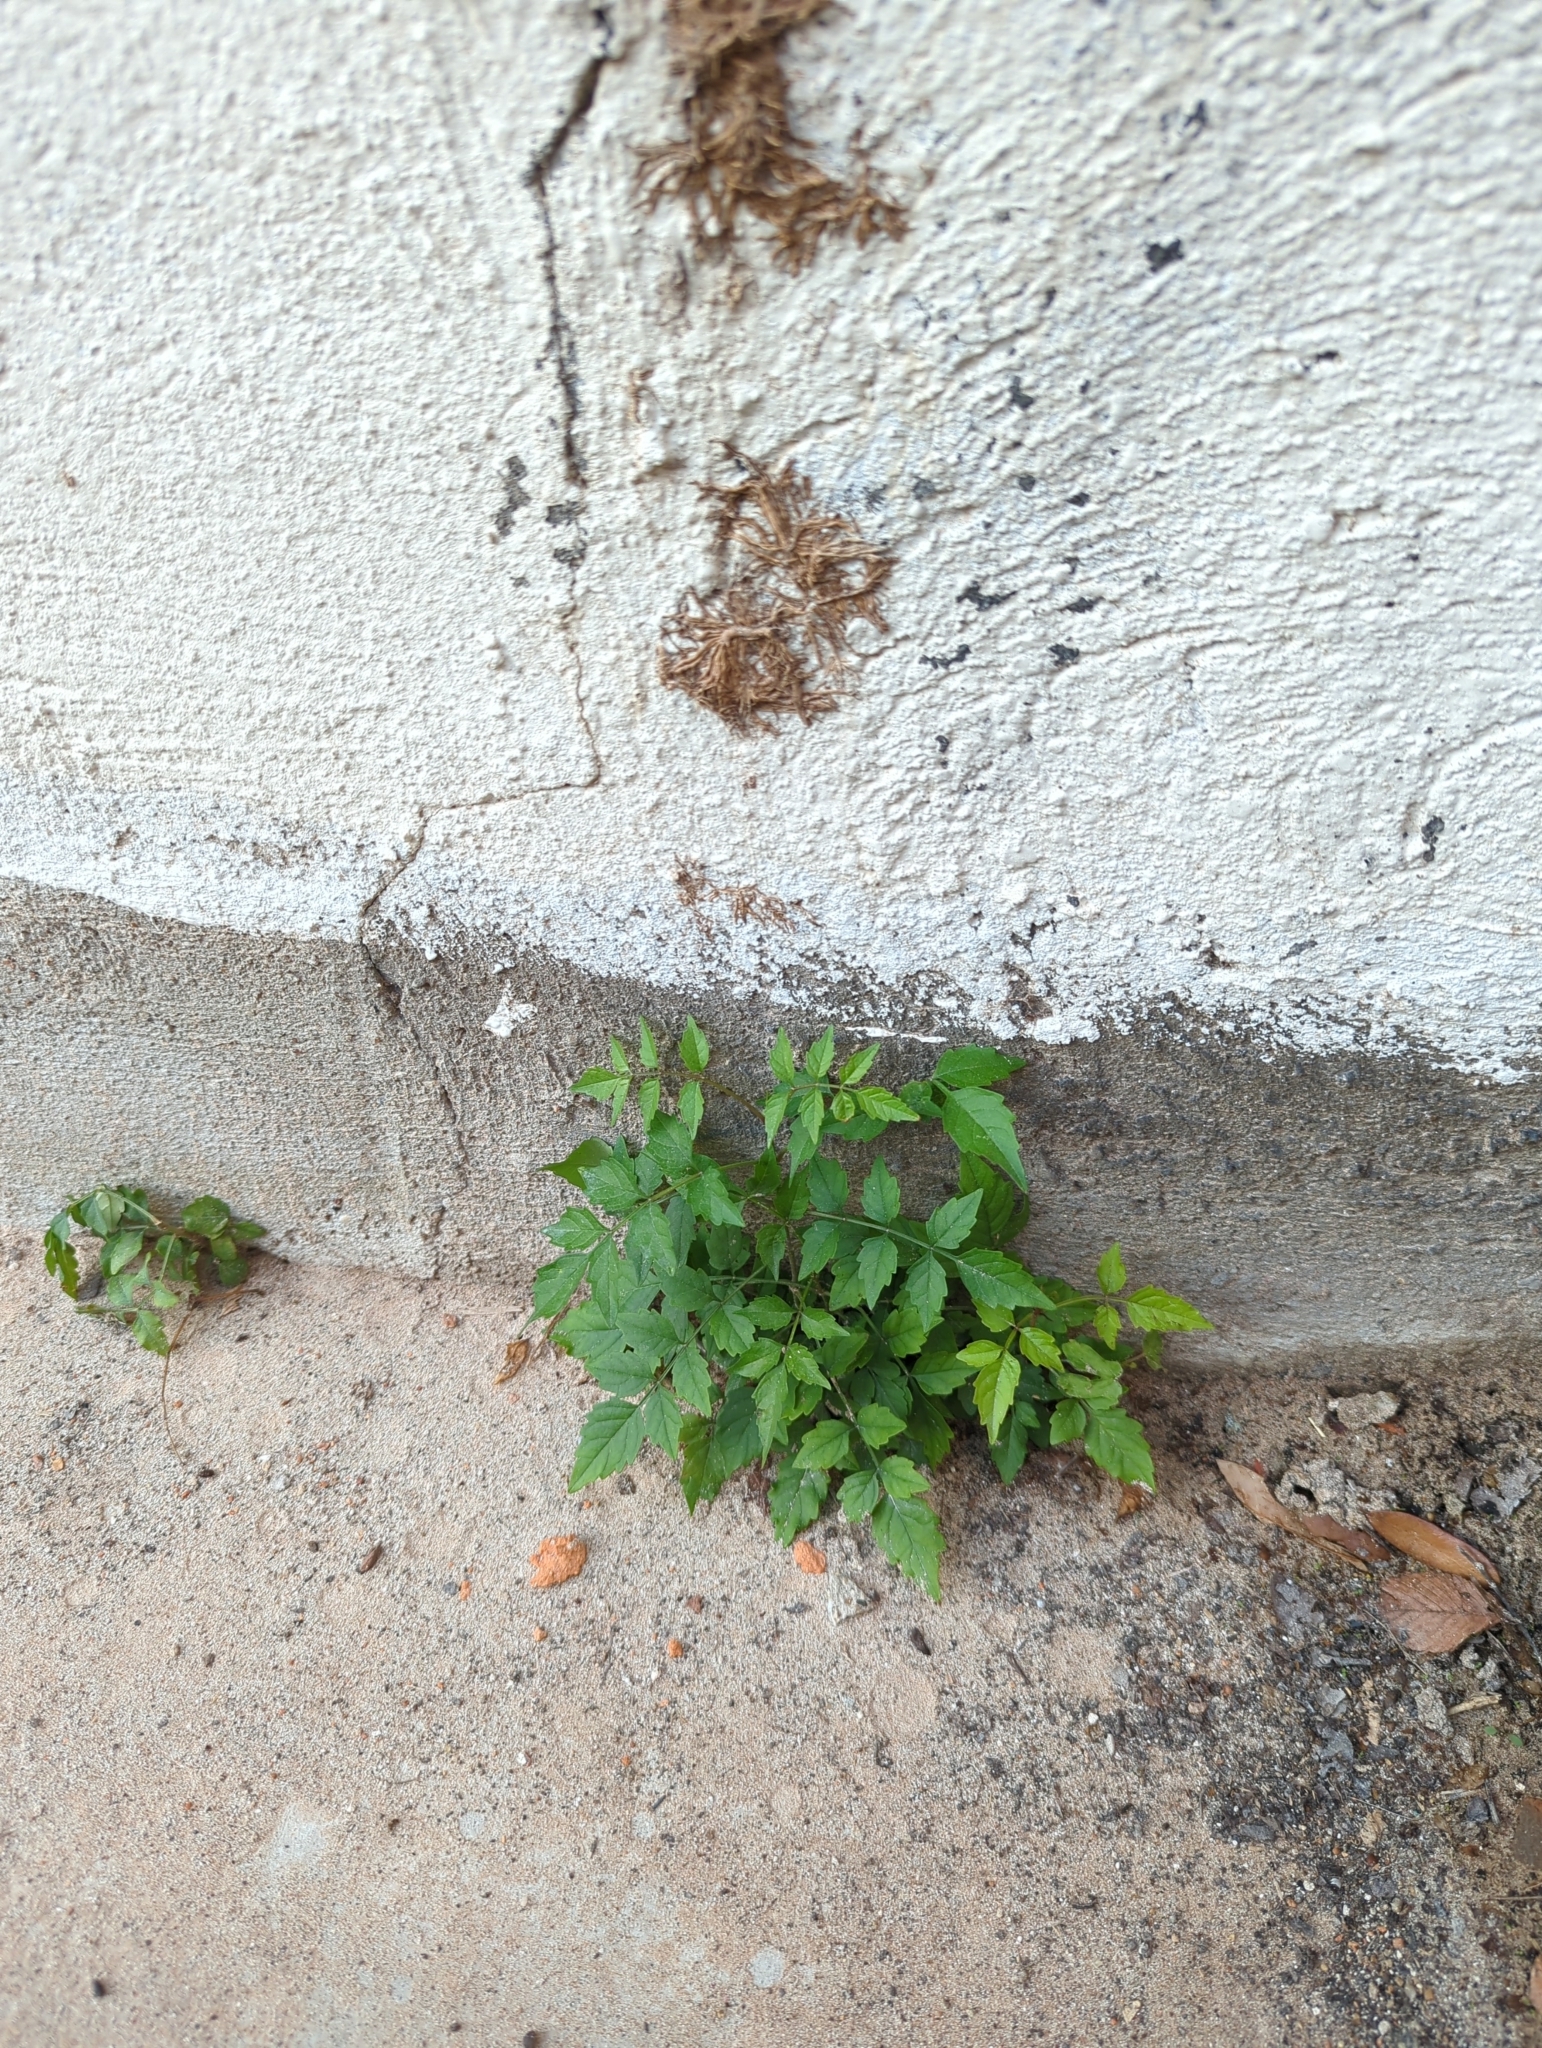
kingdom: Plantae
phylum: Tracheophyta
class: Magnoliopsida
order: Lamiales
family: Bignoniaceae
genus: Campsis
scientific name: Campsis radicans
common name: Trumpet-creeper
